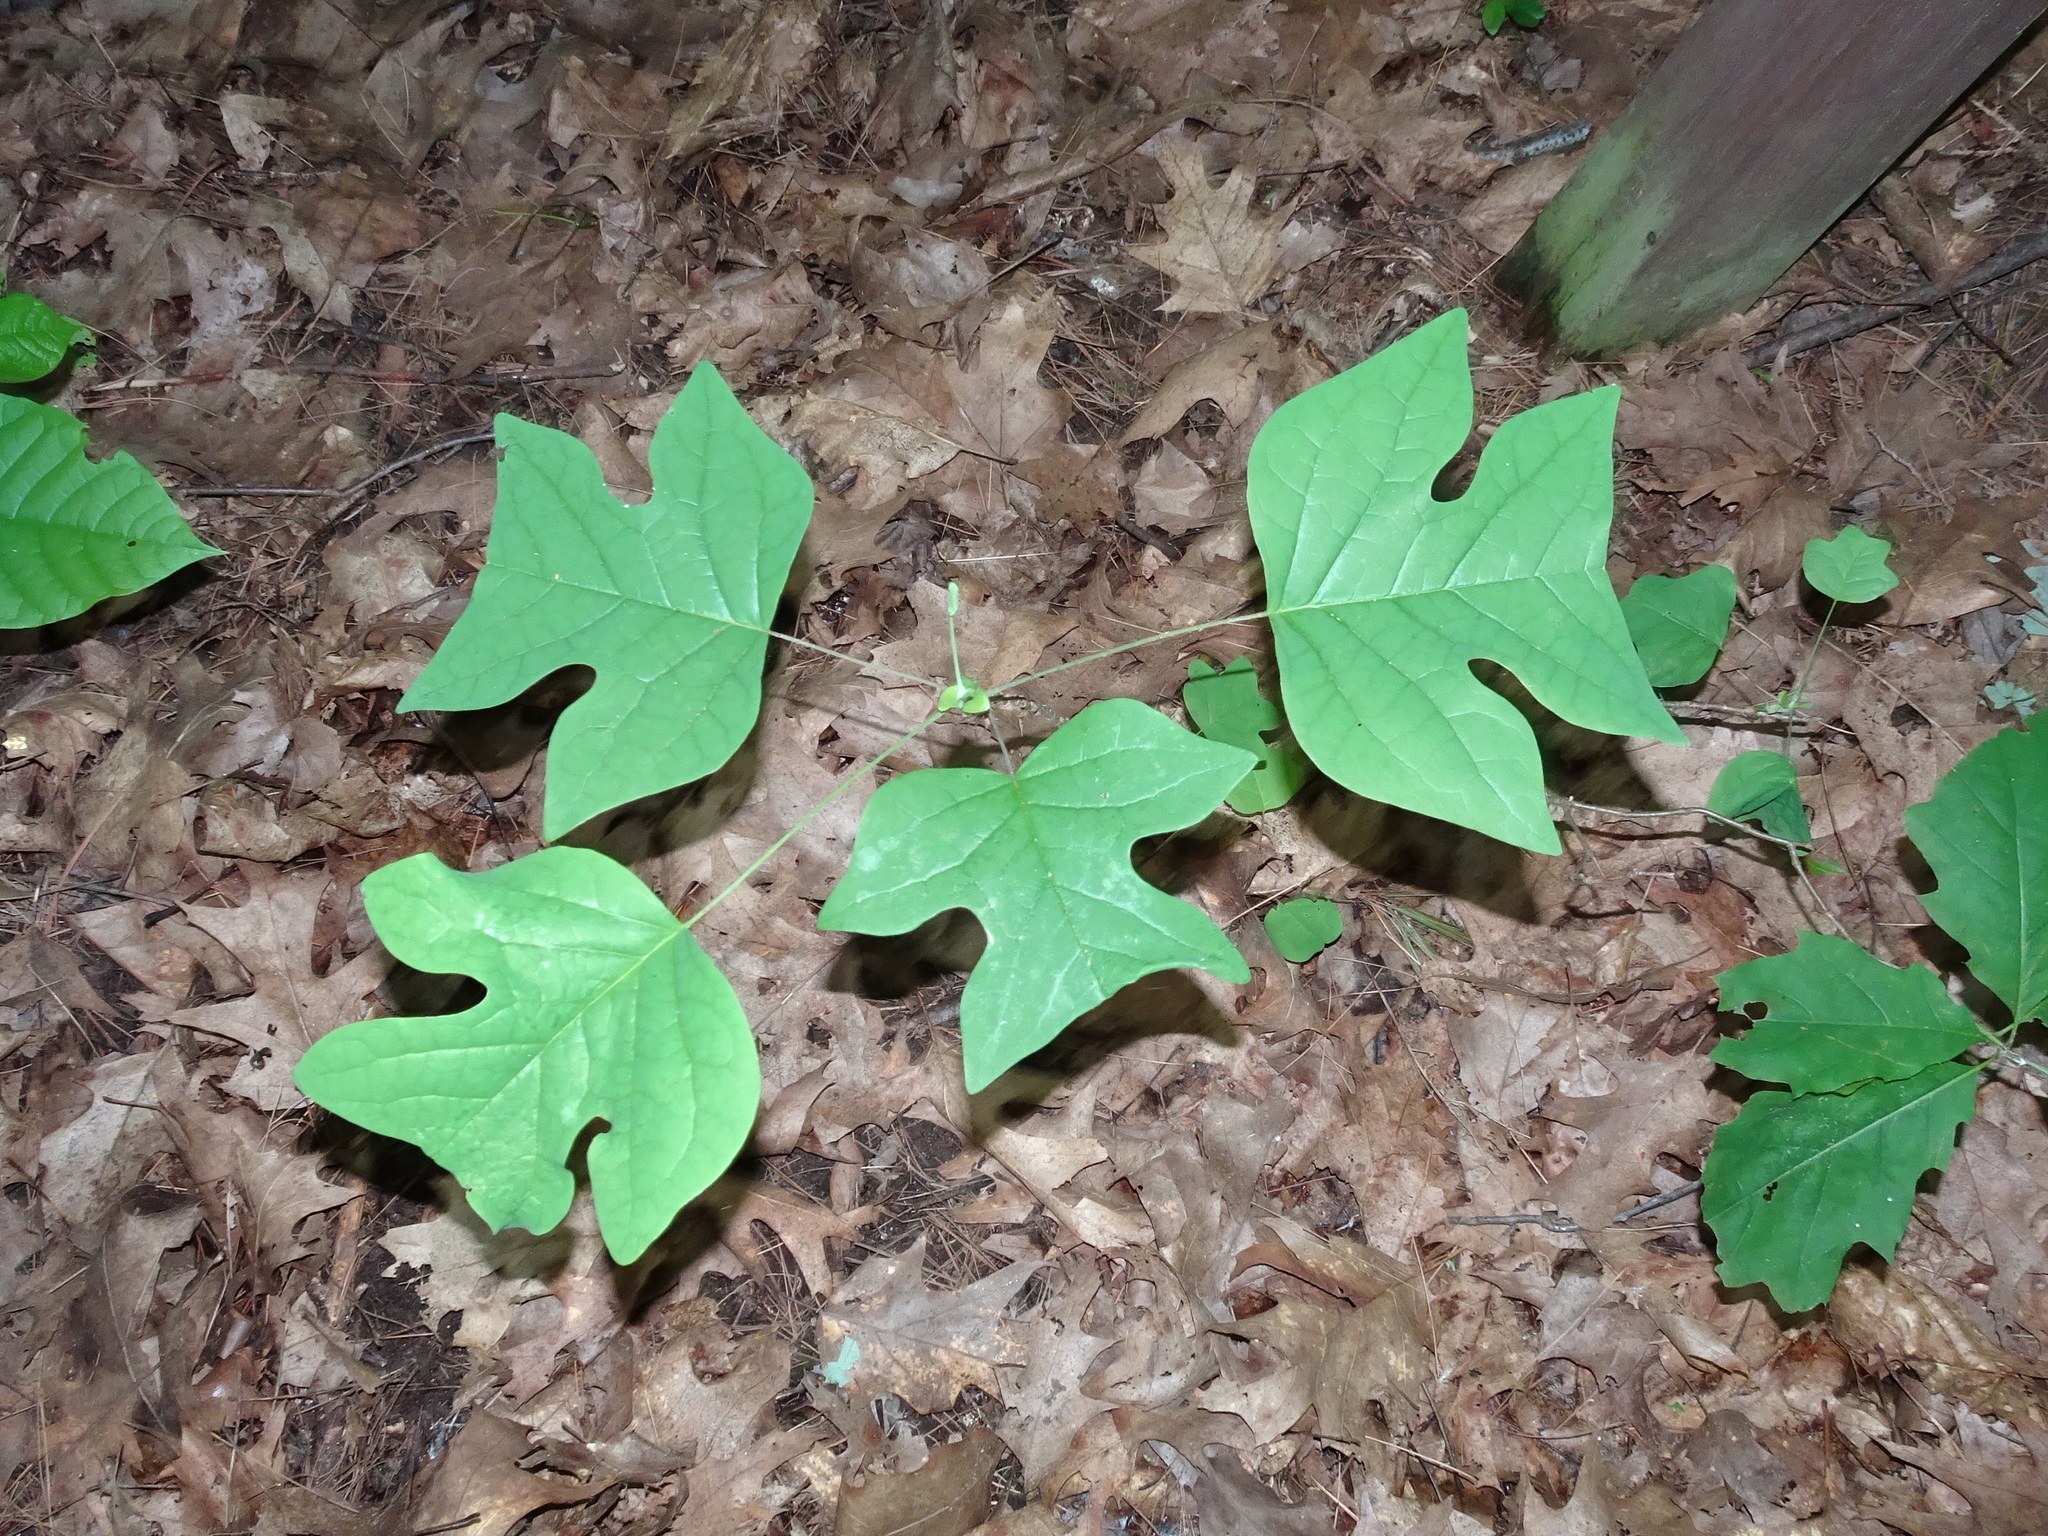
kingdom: Plantae
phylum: Tracheophyta
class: Magnoliopsida
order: Magnoliales
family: Magnoliaceae
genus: Liriodendron
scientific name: Liriodendron tulipifera
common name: Tulip tree
